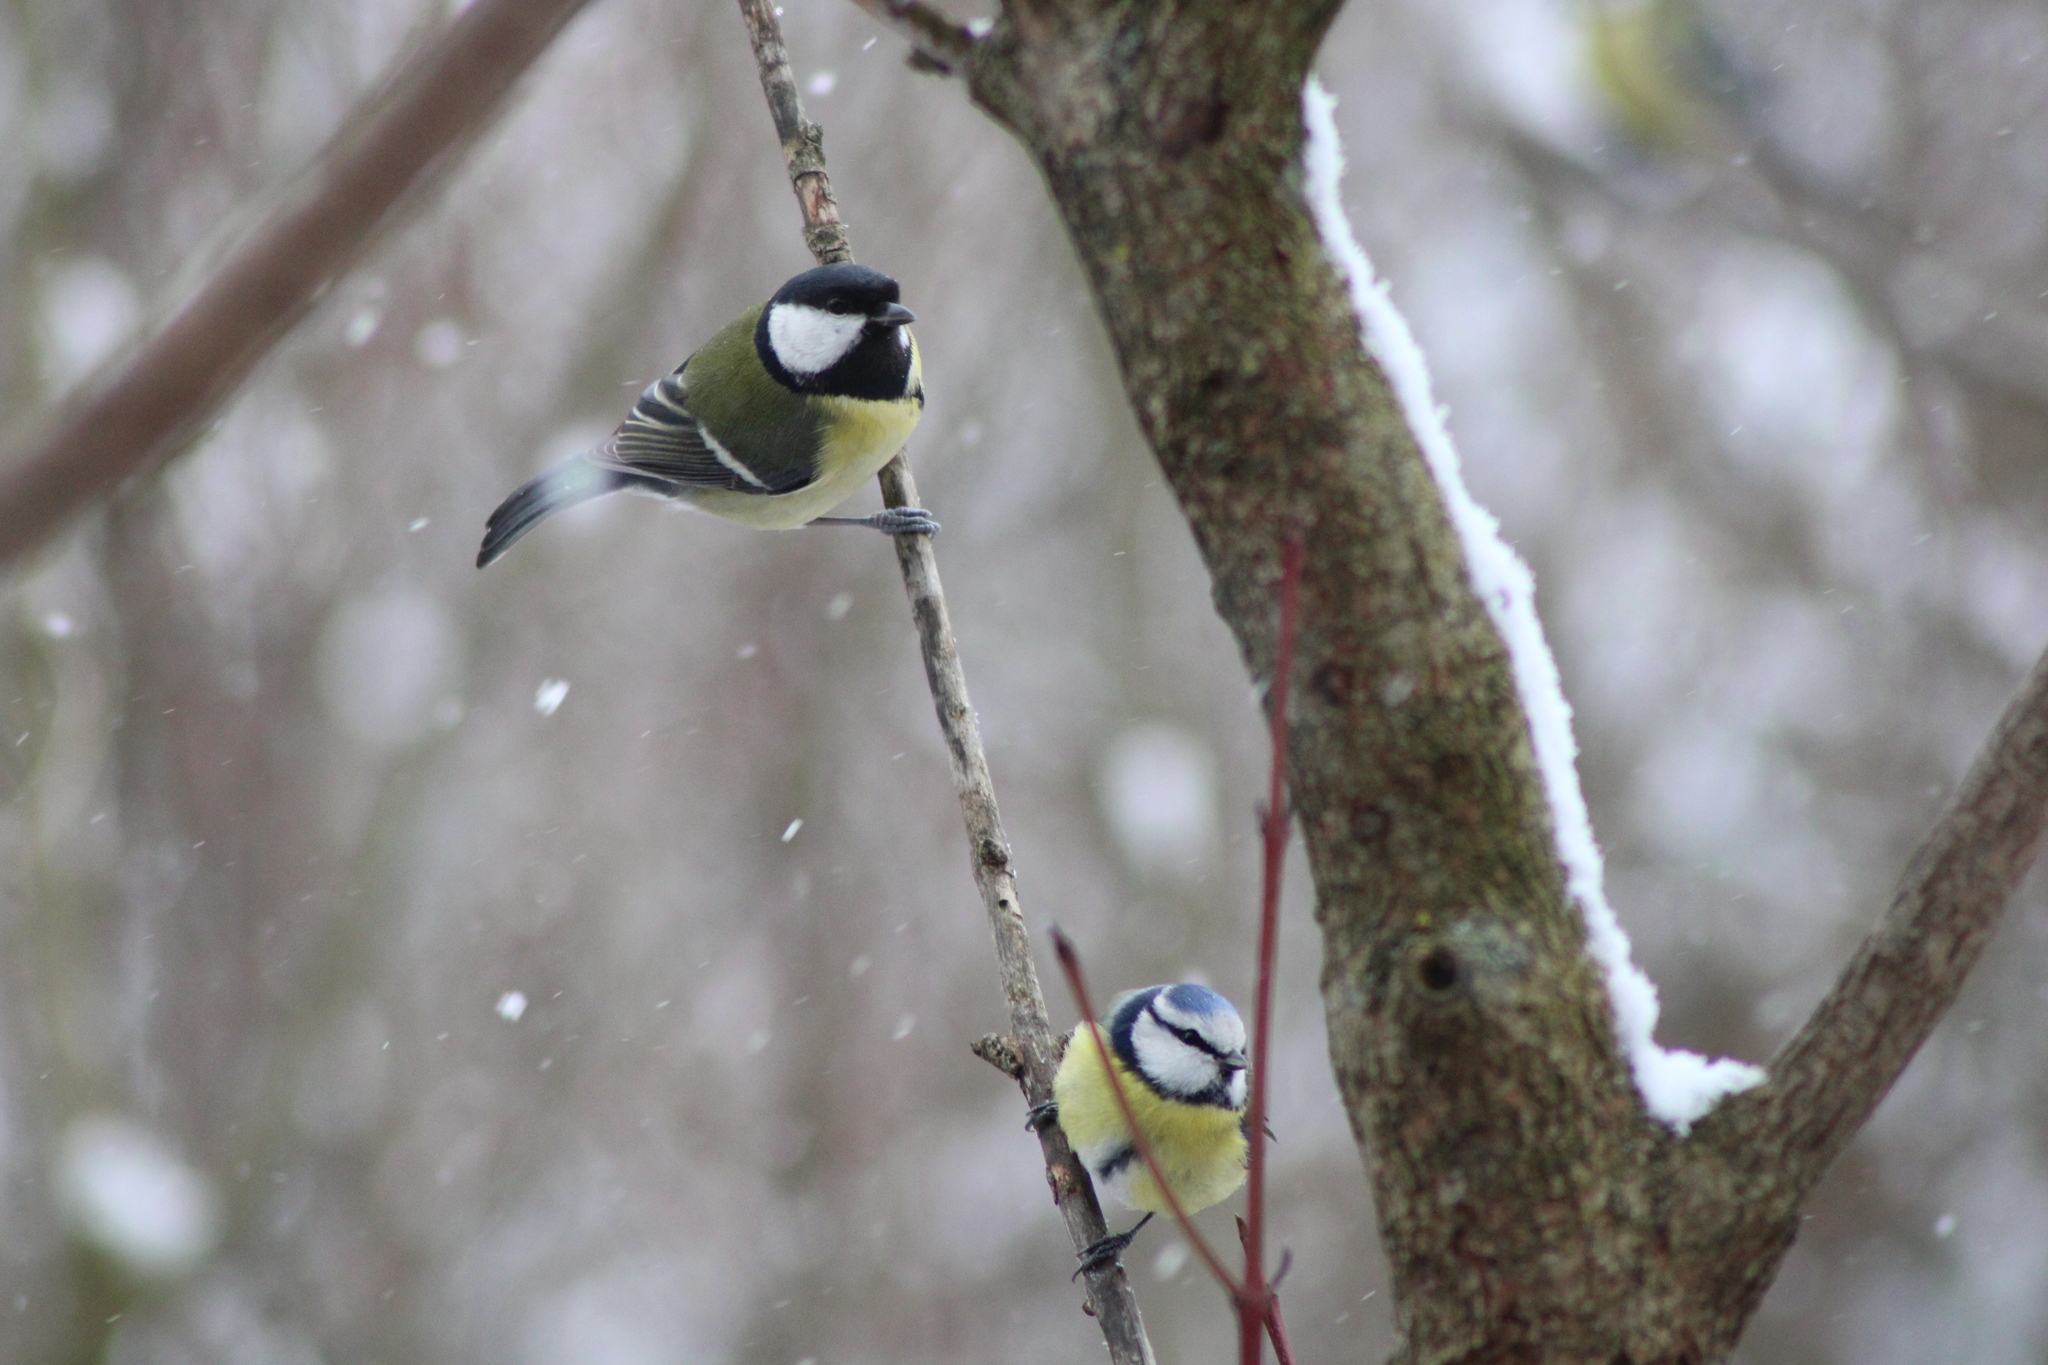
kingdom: Animalia
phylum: Chordata
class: Aves
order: Passeriformes
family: Paridae
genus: Parus
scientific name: Parus major
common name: Great tit
